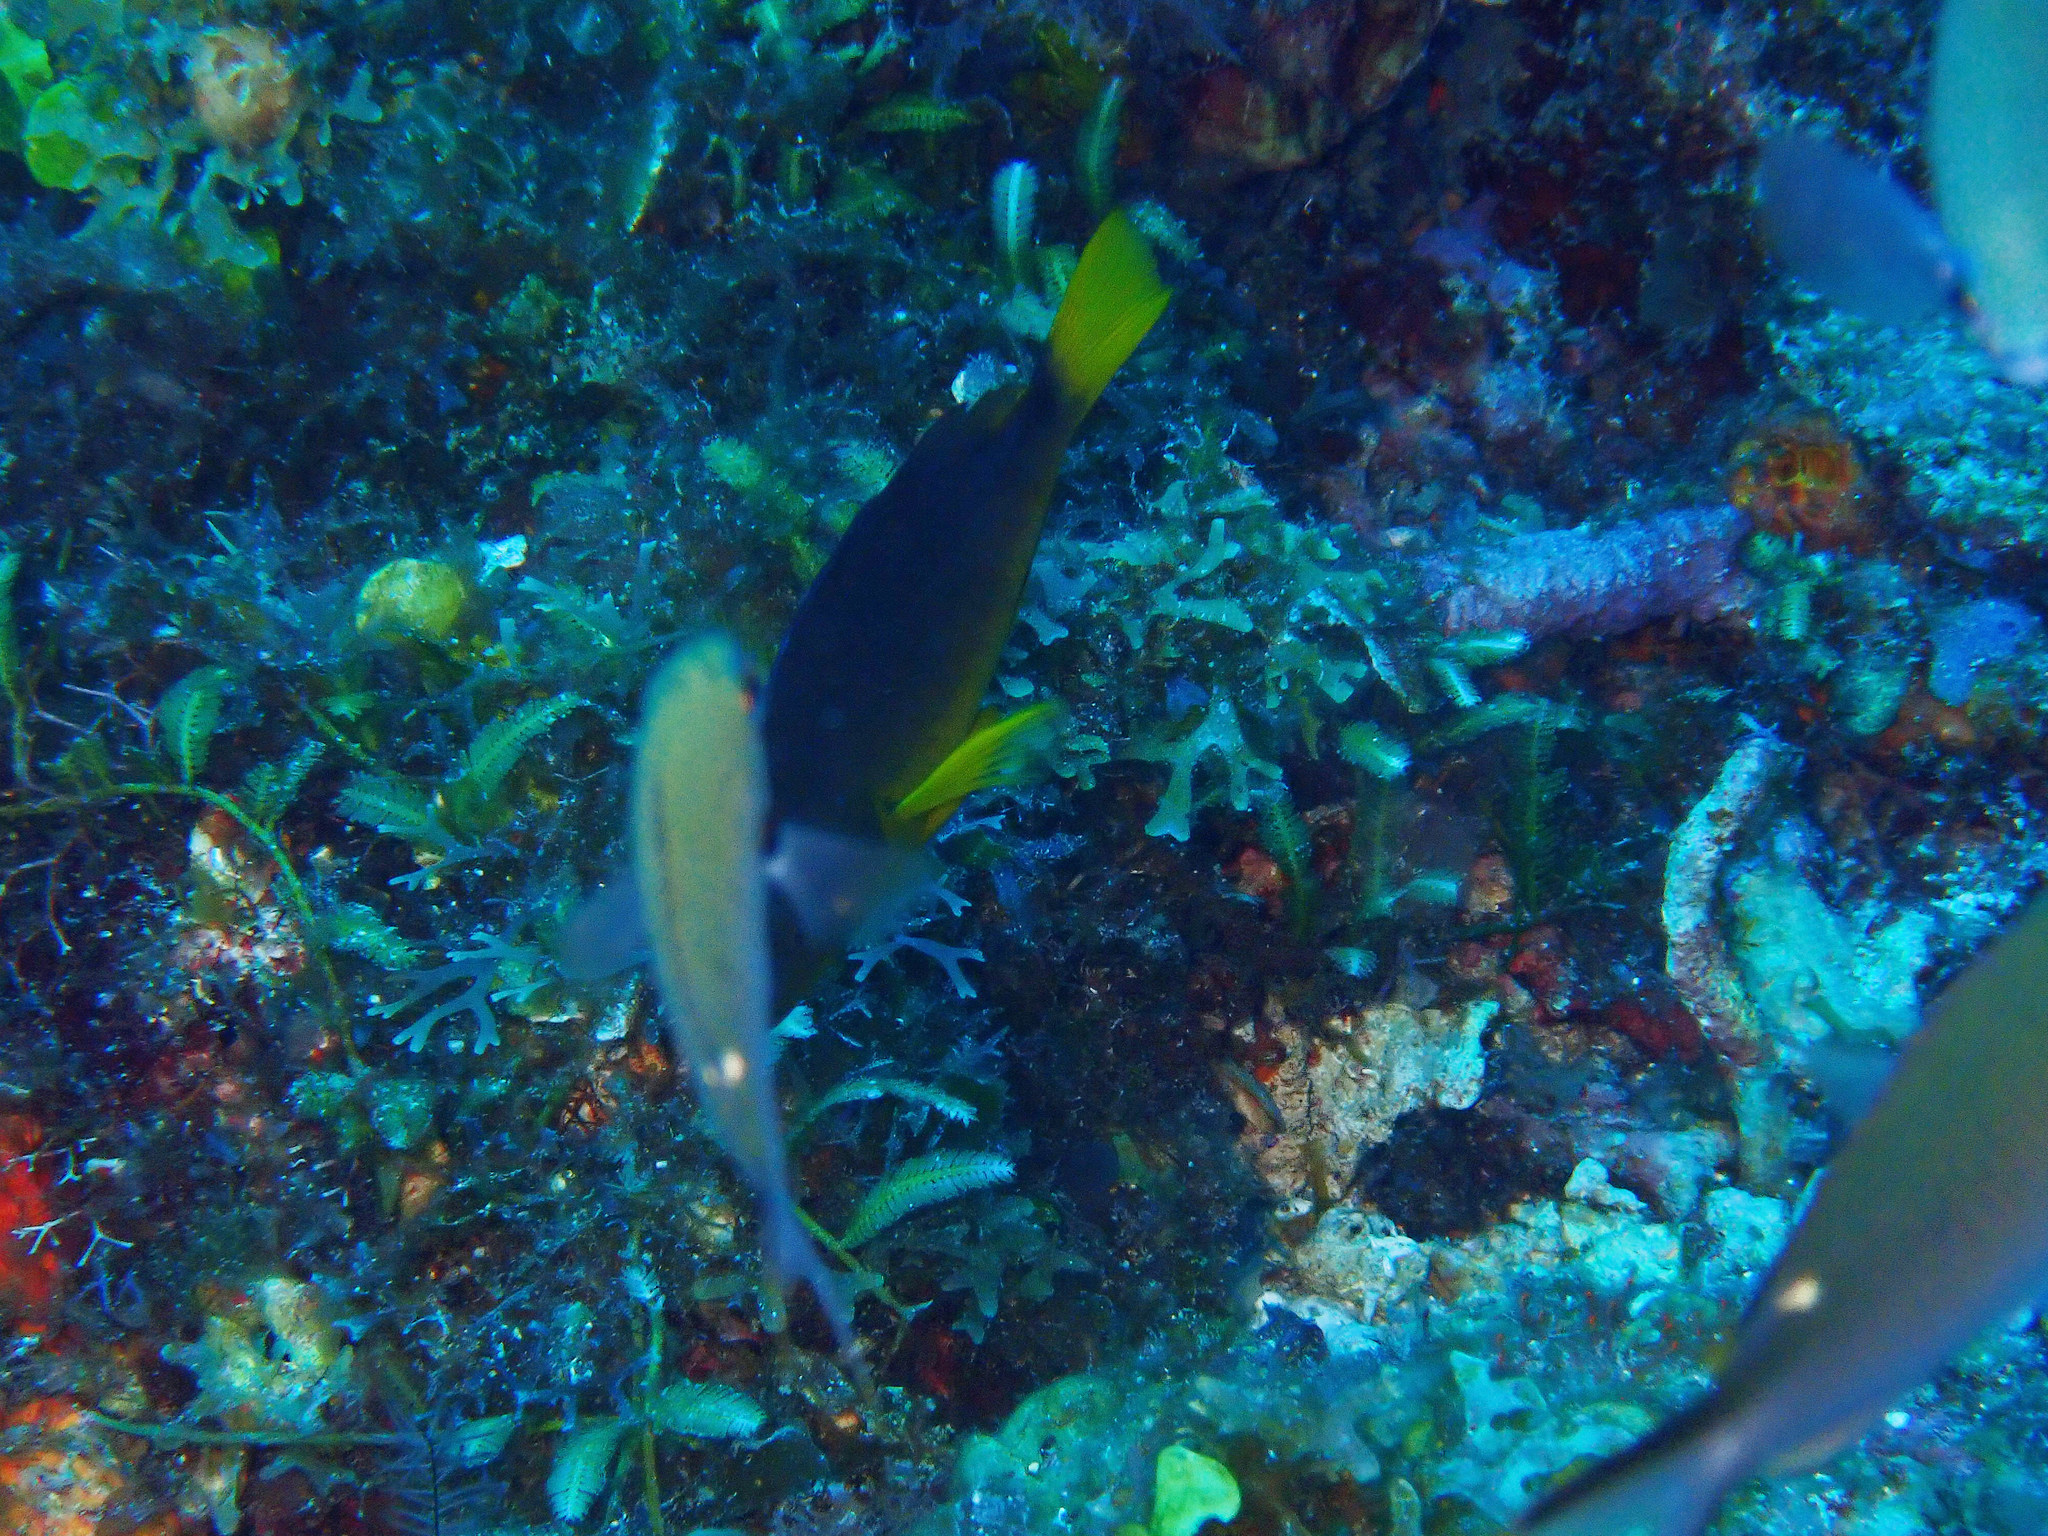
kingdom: Animalia
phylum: Chordata
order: Perciformes
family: Serranidae
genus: Hypoplectrus
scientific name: Hypoplectrus aberrans
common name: Yellowbelly hamlet
